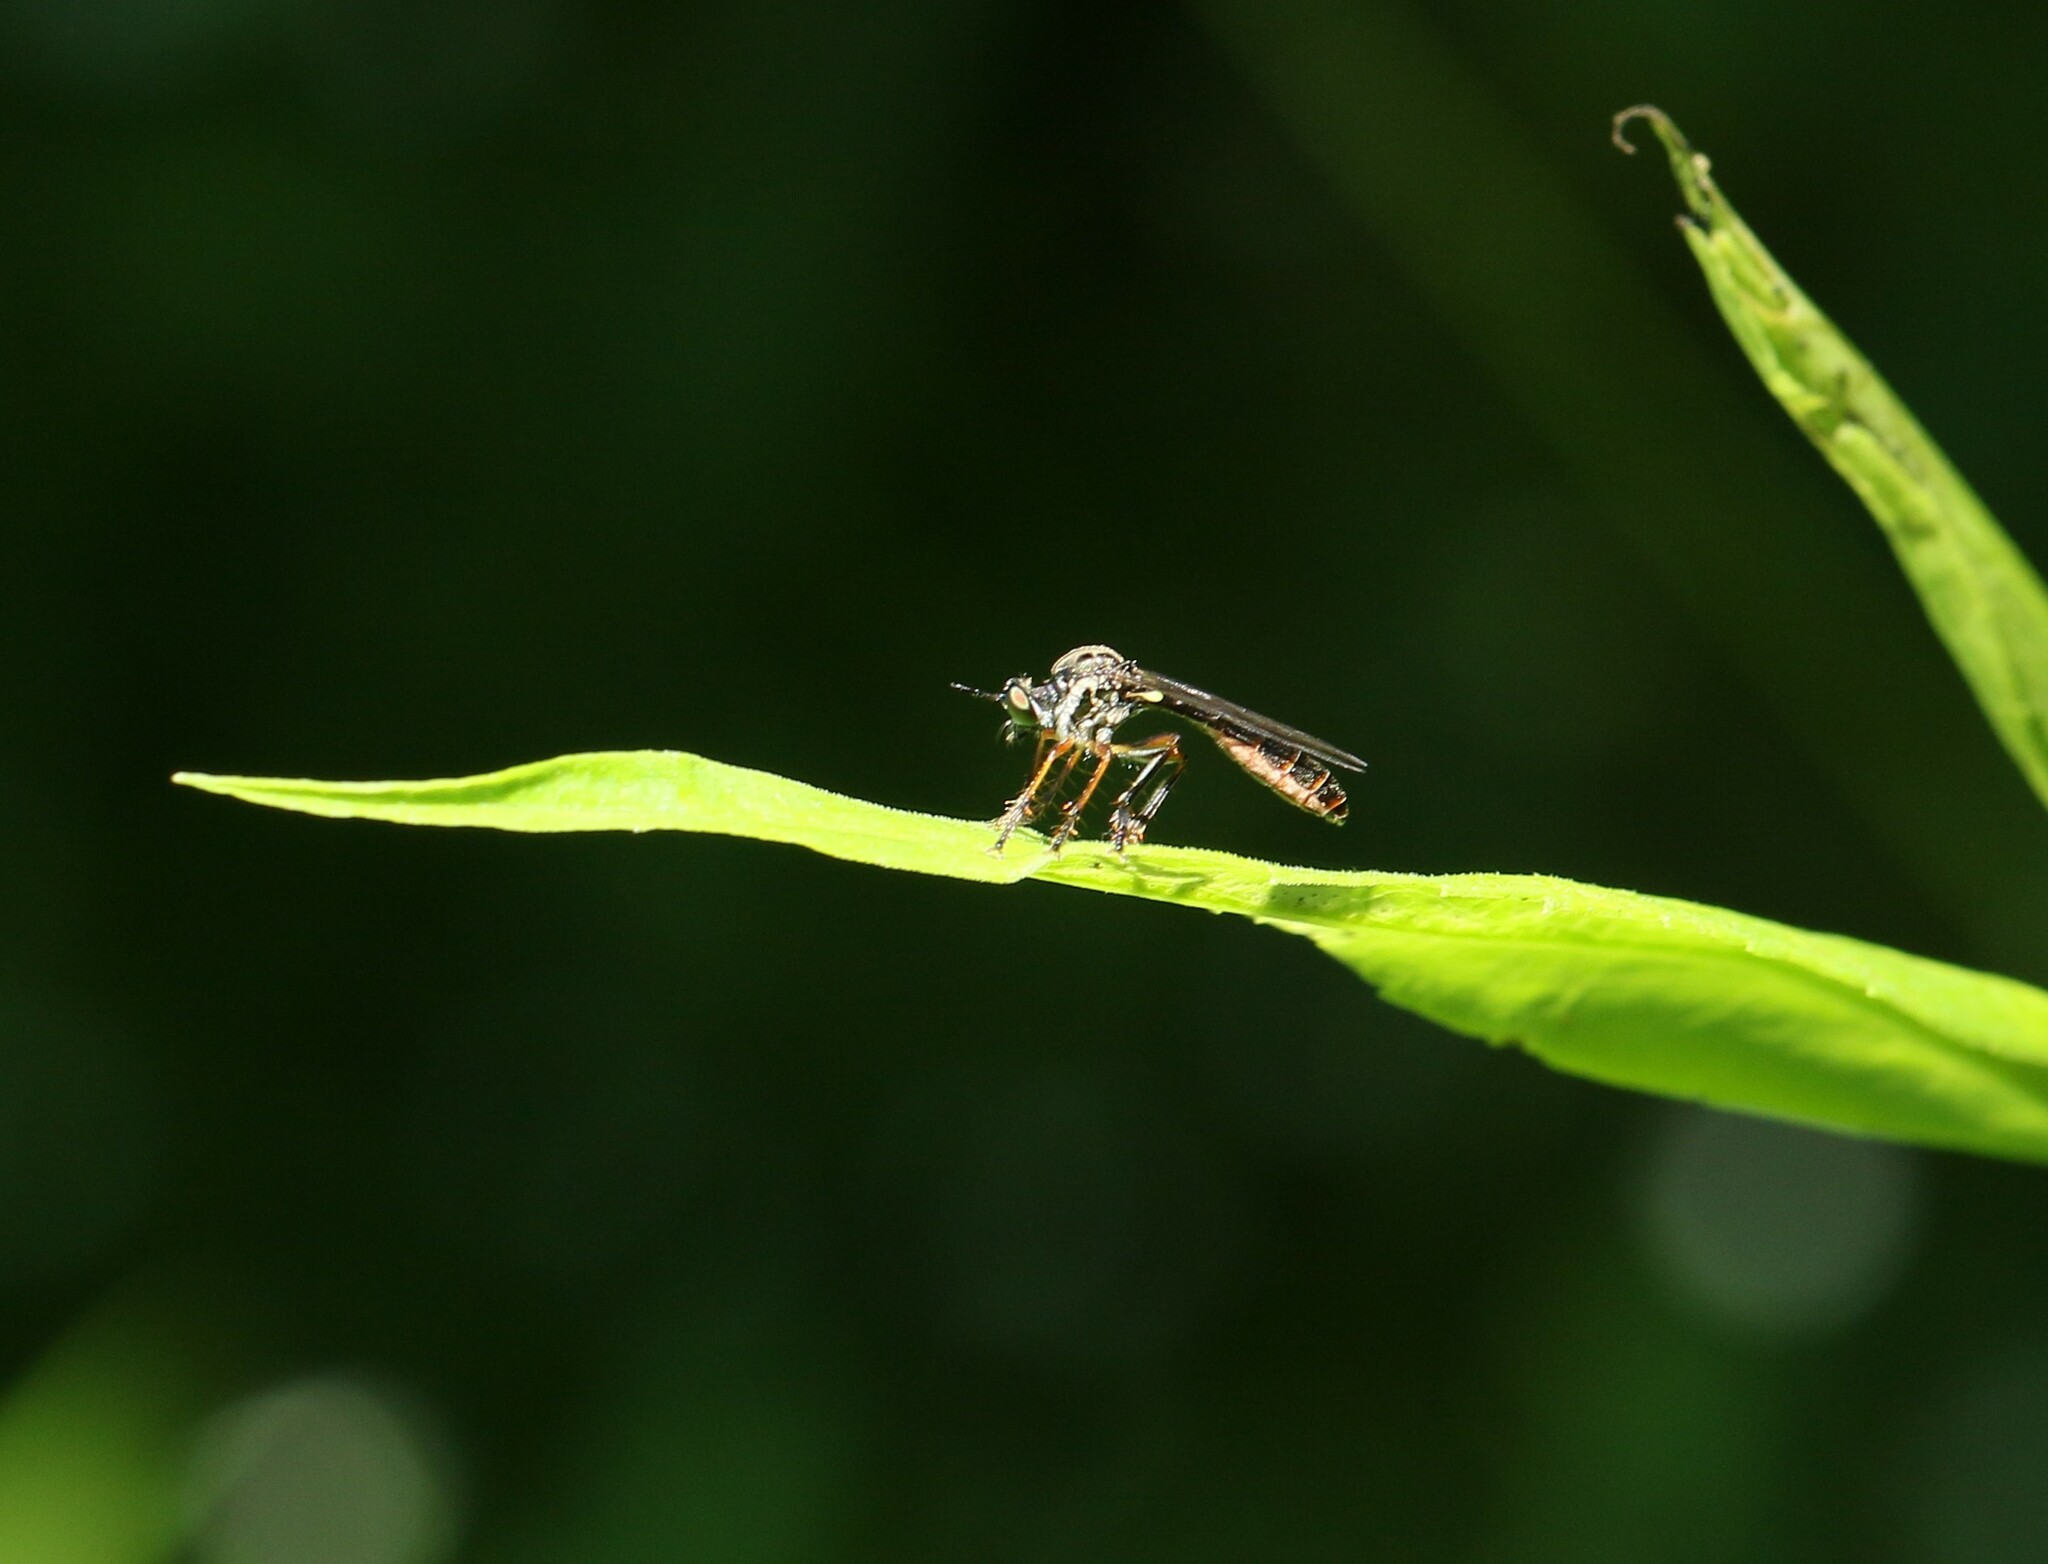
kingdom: Animalia
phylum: Arthropoda
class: Insecta
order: Diptera
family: Asilidae
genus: Dioctria
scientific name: Dioctria hyalipennis
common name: Stripe-legged robberfly
